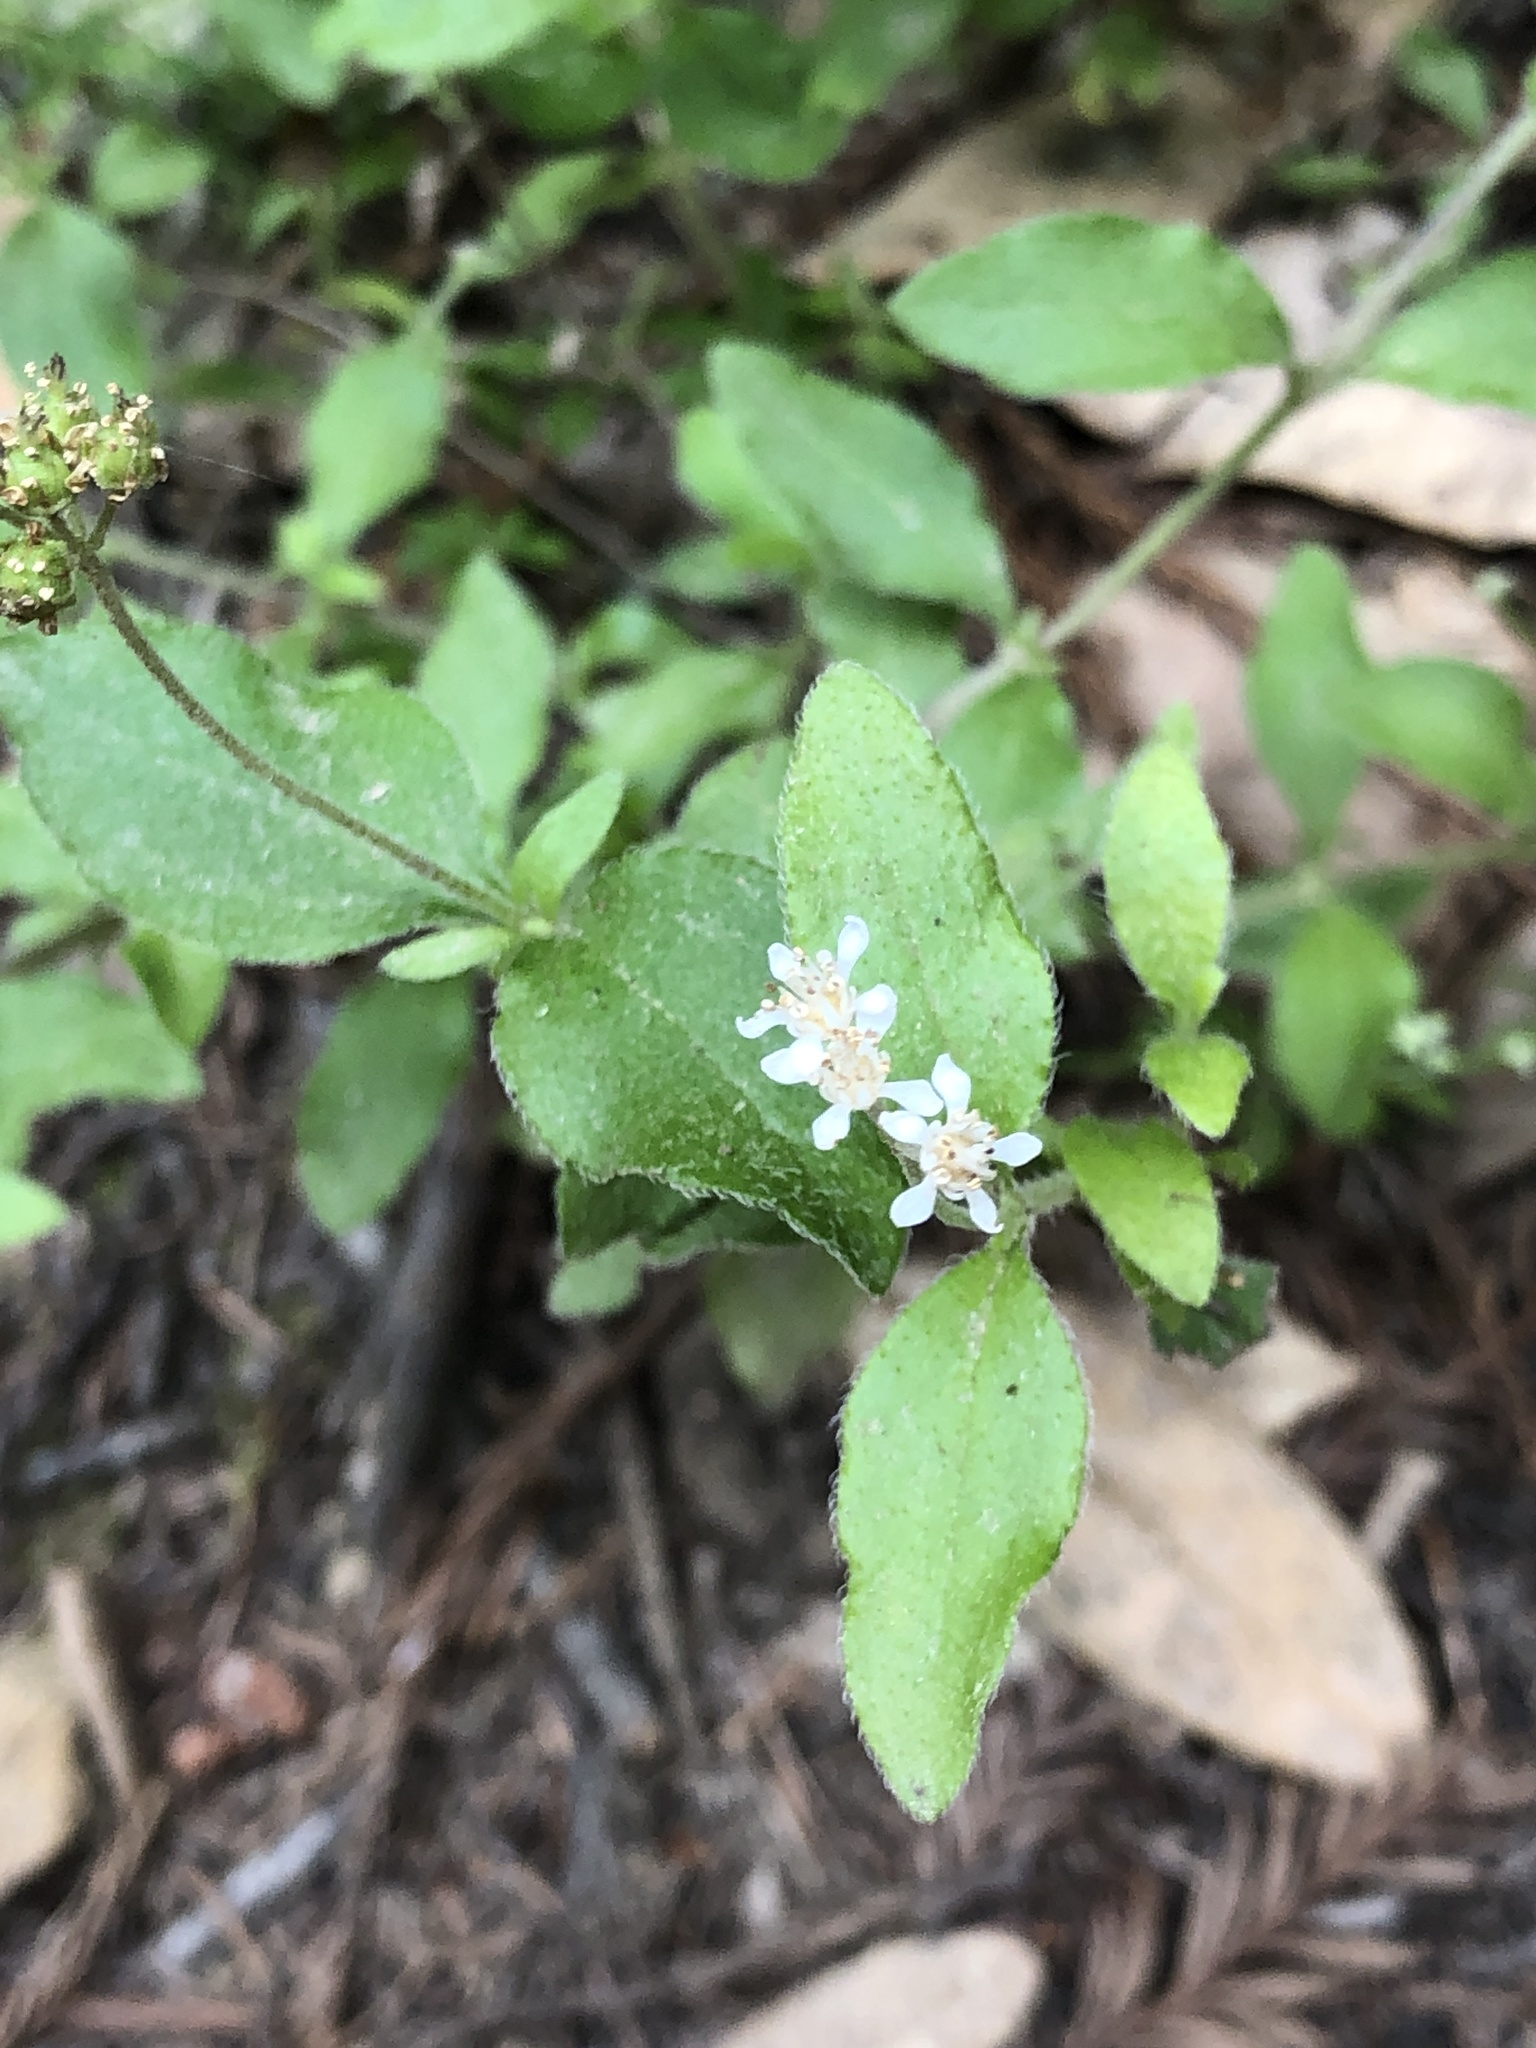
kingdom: Plantae
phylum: Tracheophyta
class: Magnoliopsida
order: Cornales
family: Hydrangeaceae
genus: Whipplea
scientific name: Whipplea modesta
